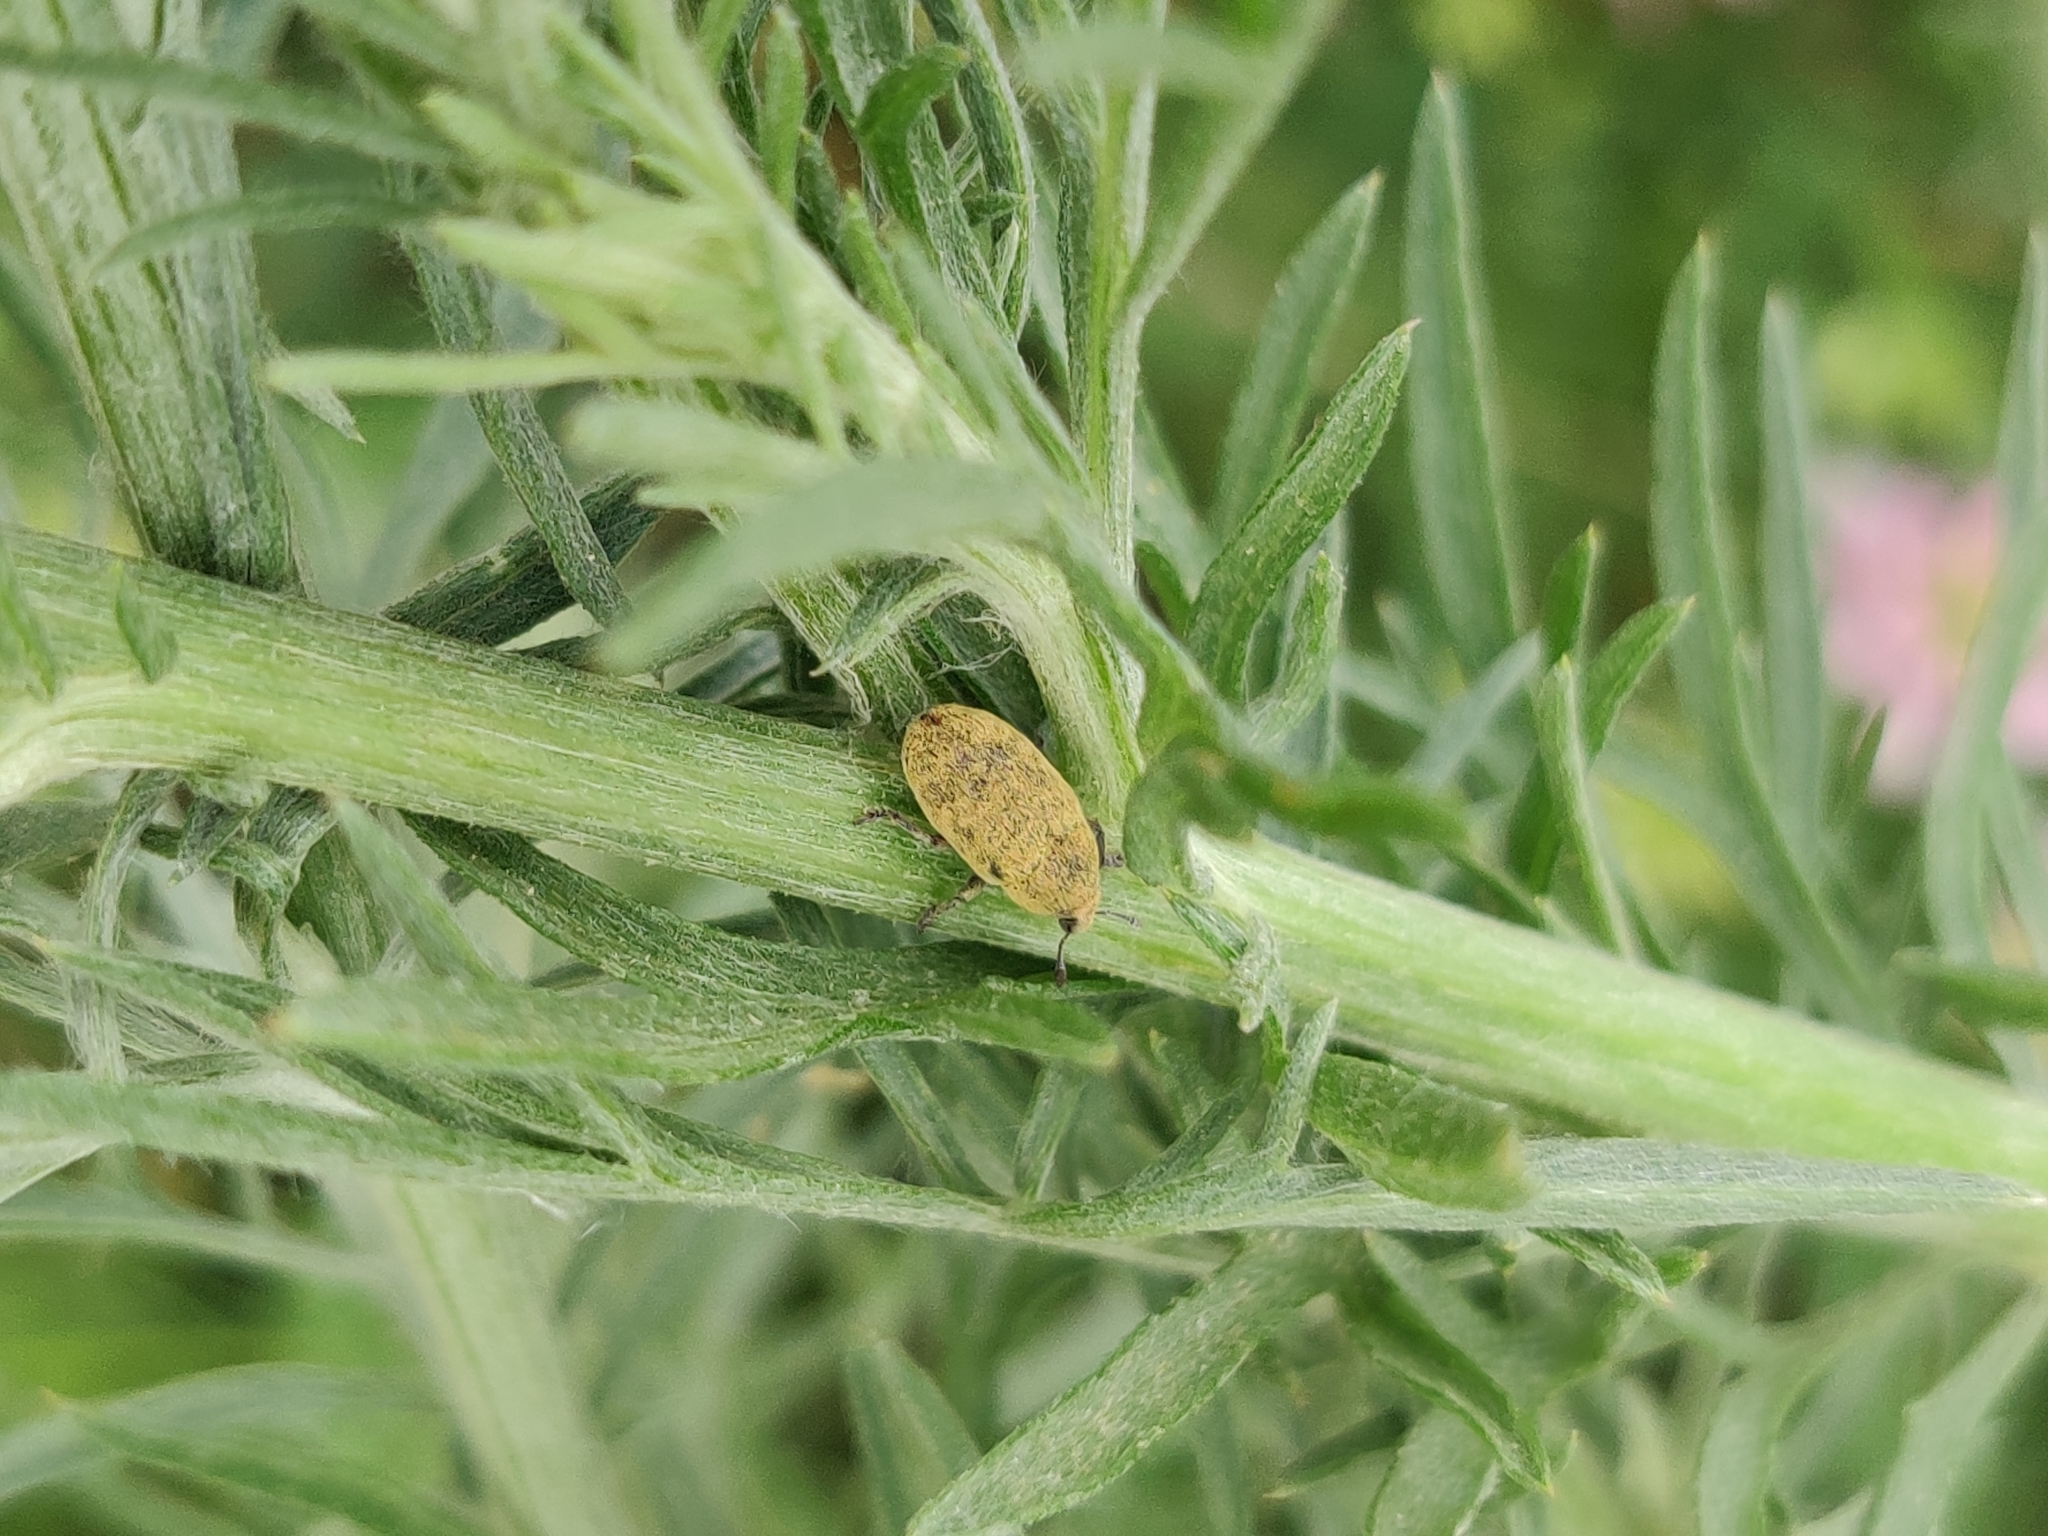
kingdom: Animalia
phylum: Arthropoda
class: Insecta
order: Coleoptera
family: Curculionidae
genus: Larinus
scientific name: Larinus minutus
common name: Weevil
